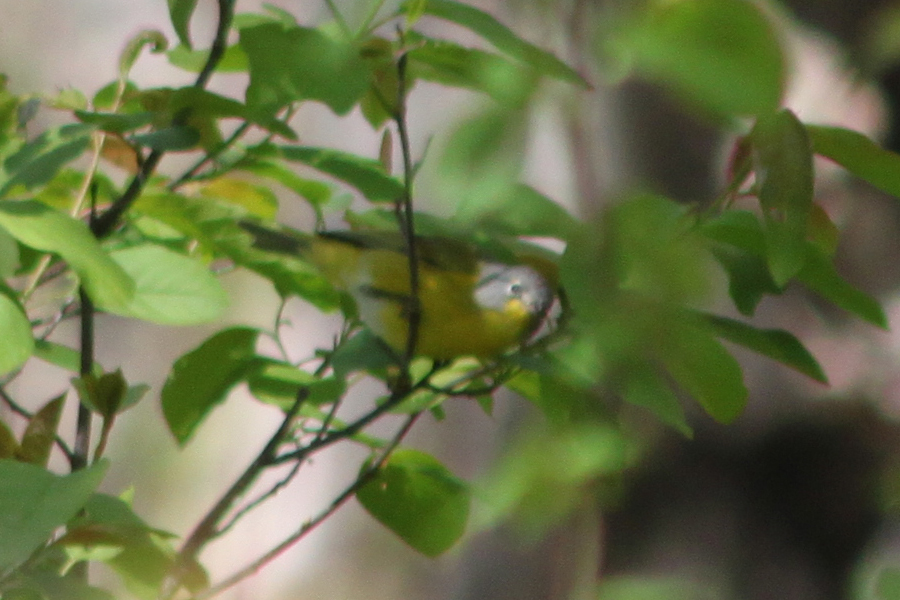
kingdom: Animalia
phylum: Chordata
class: Aves
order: Passeriformes
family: Parulidae
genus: Leiothlypis
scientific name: Leiothlypis ruficapilla
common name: Nashville warbler
